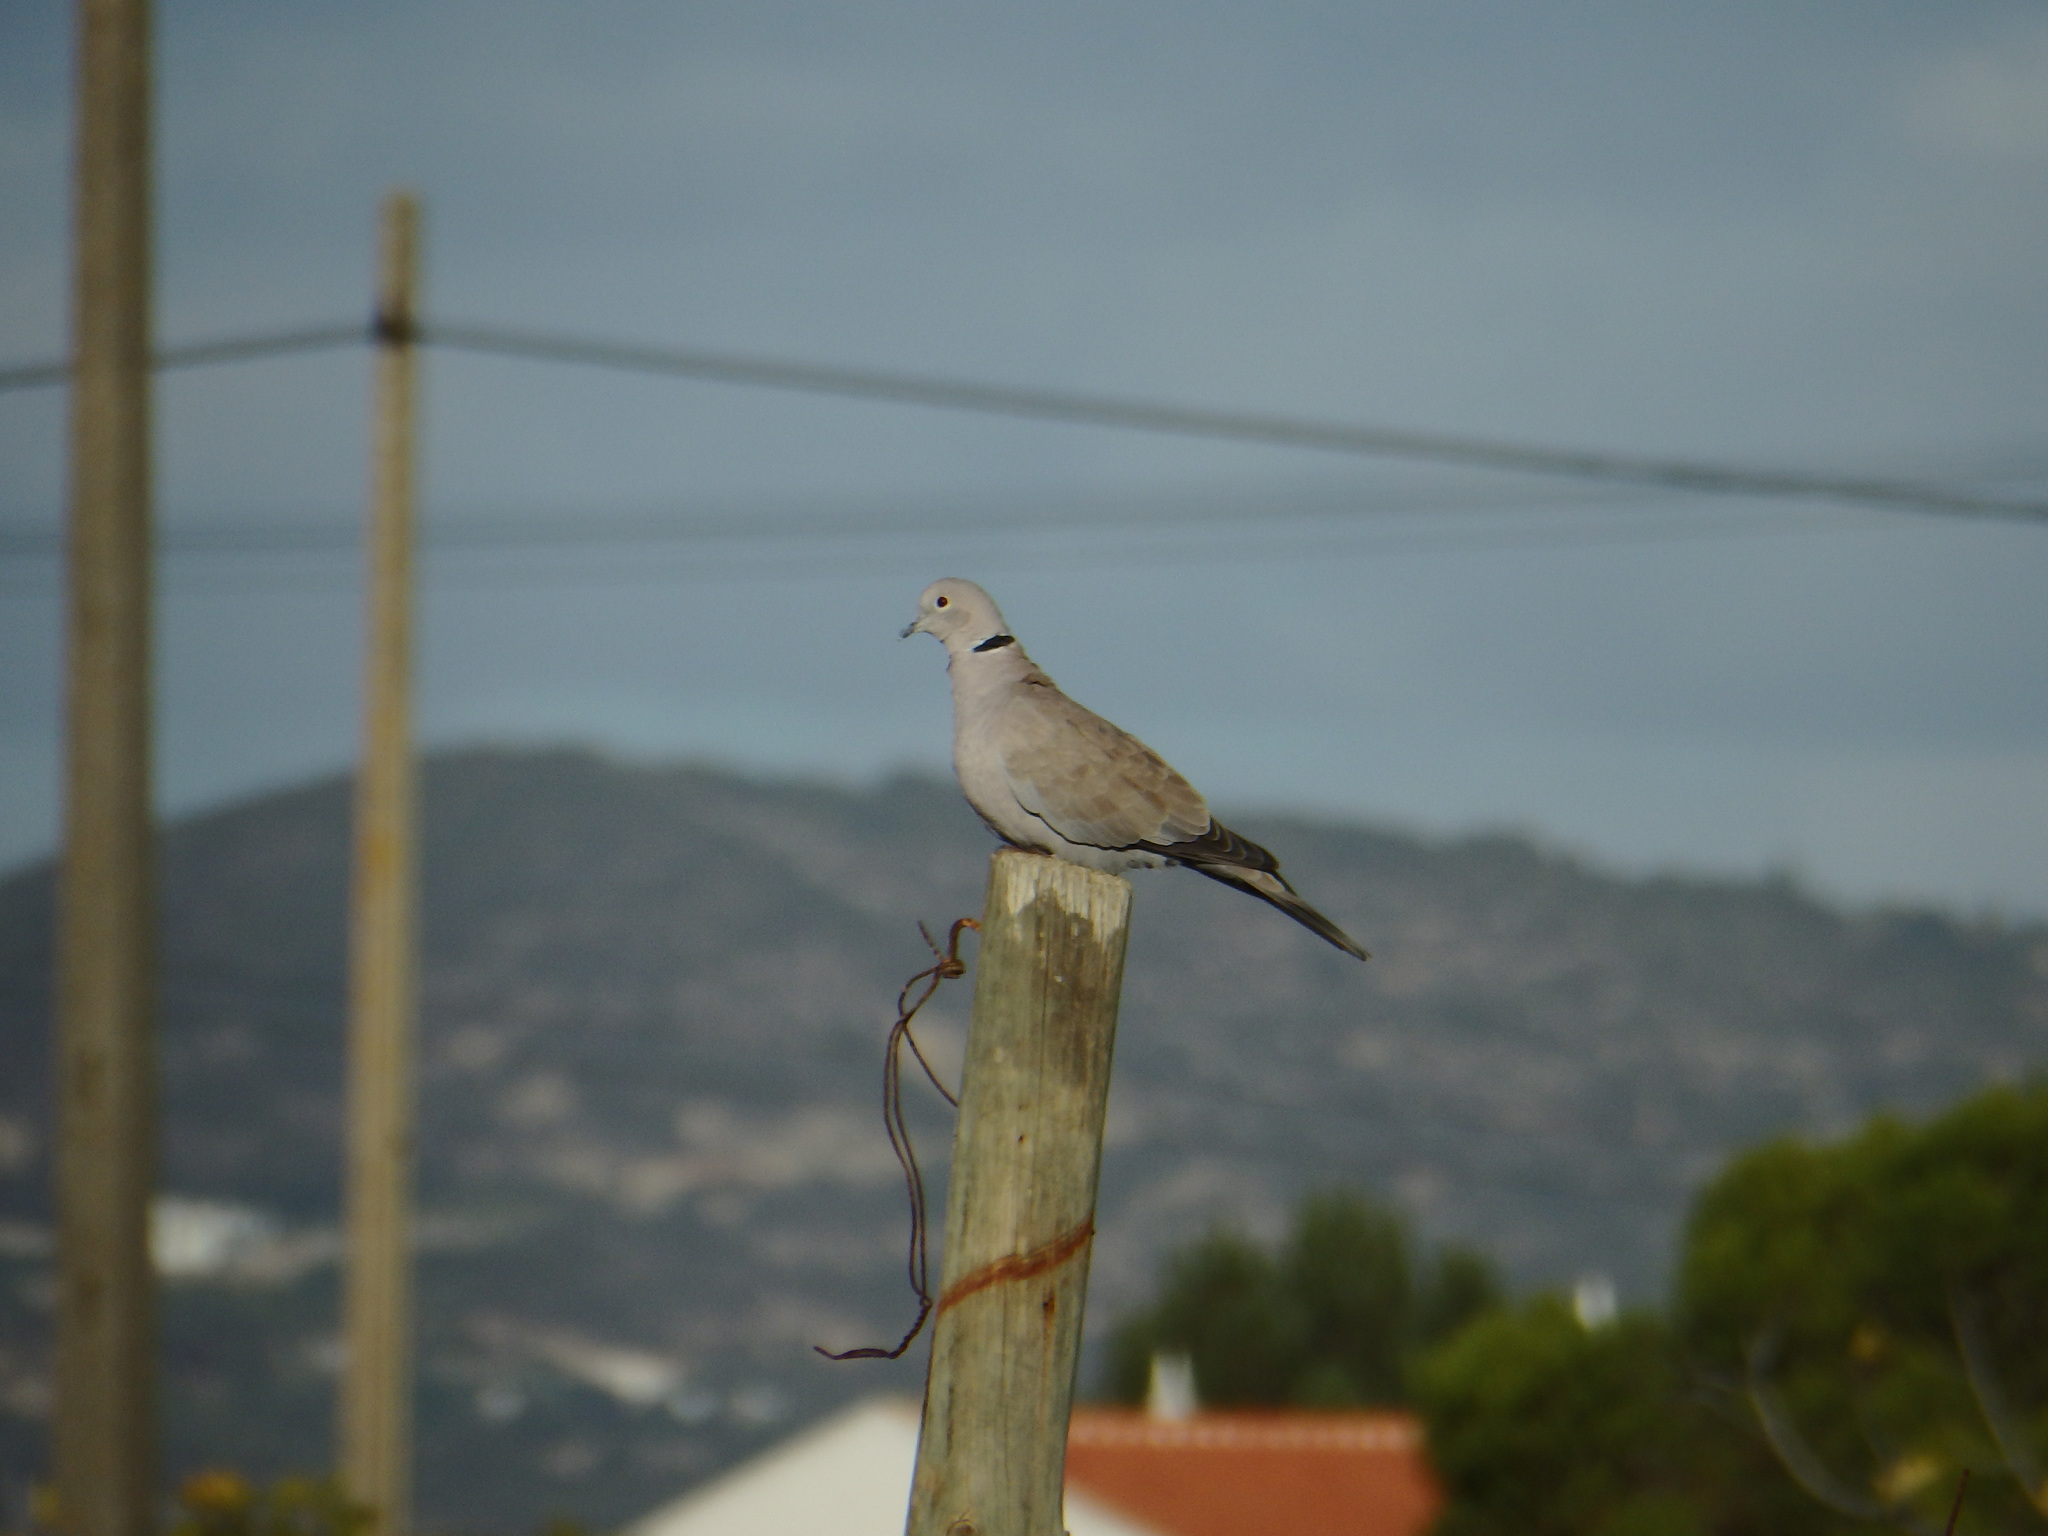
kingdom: Animalia
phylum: Chordata
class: Aves
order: Columbiformes
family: Columbidae
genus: Streptopelia
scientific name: Streptopelia decaocto
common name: Eurasian collared dove
